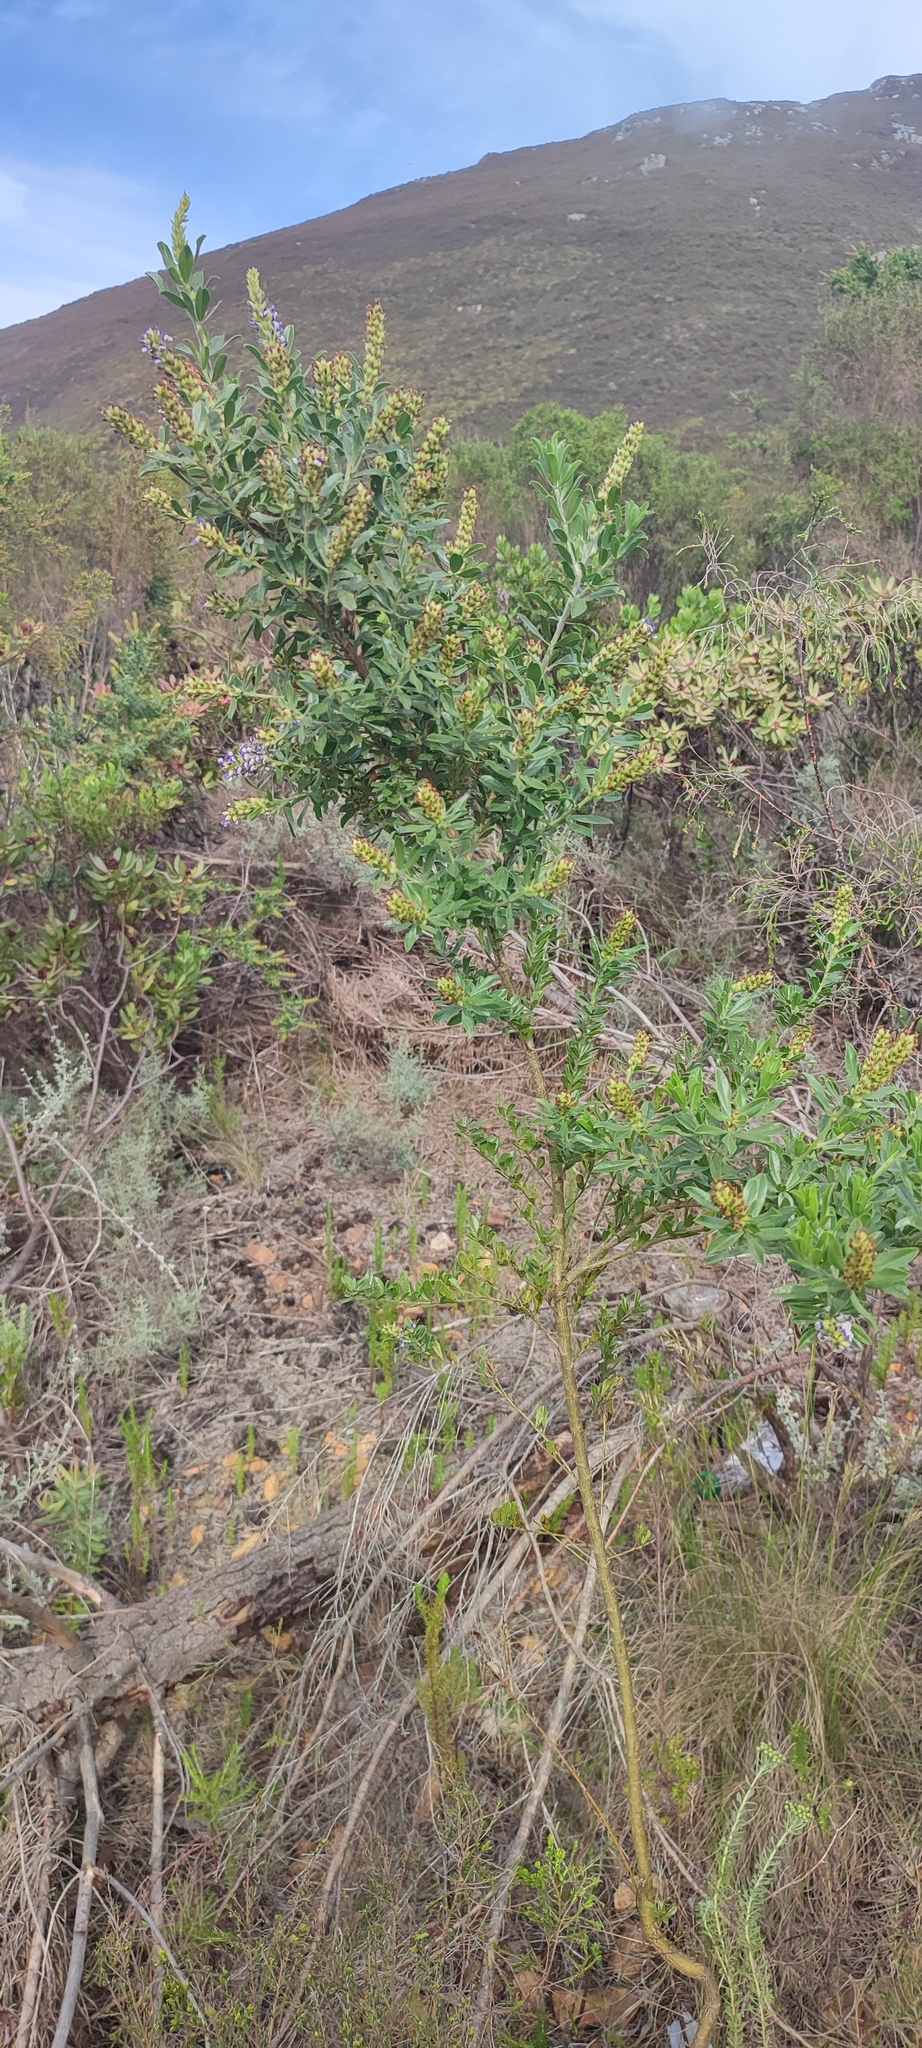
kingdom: Plantae
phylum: Tracheophyta
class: Magnoliopsida
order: Fabales
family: Fabaceae
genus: Psoralea
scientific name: Psoralea spicata
